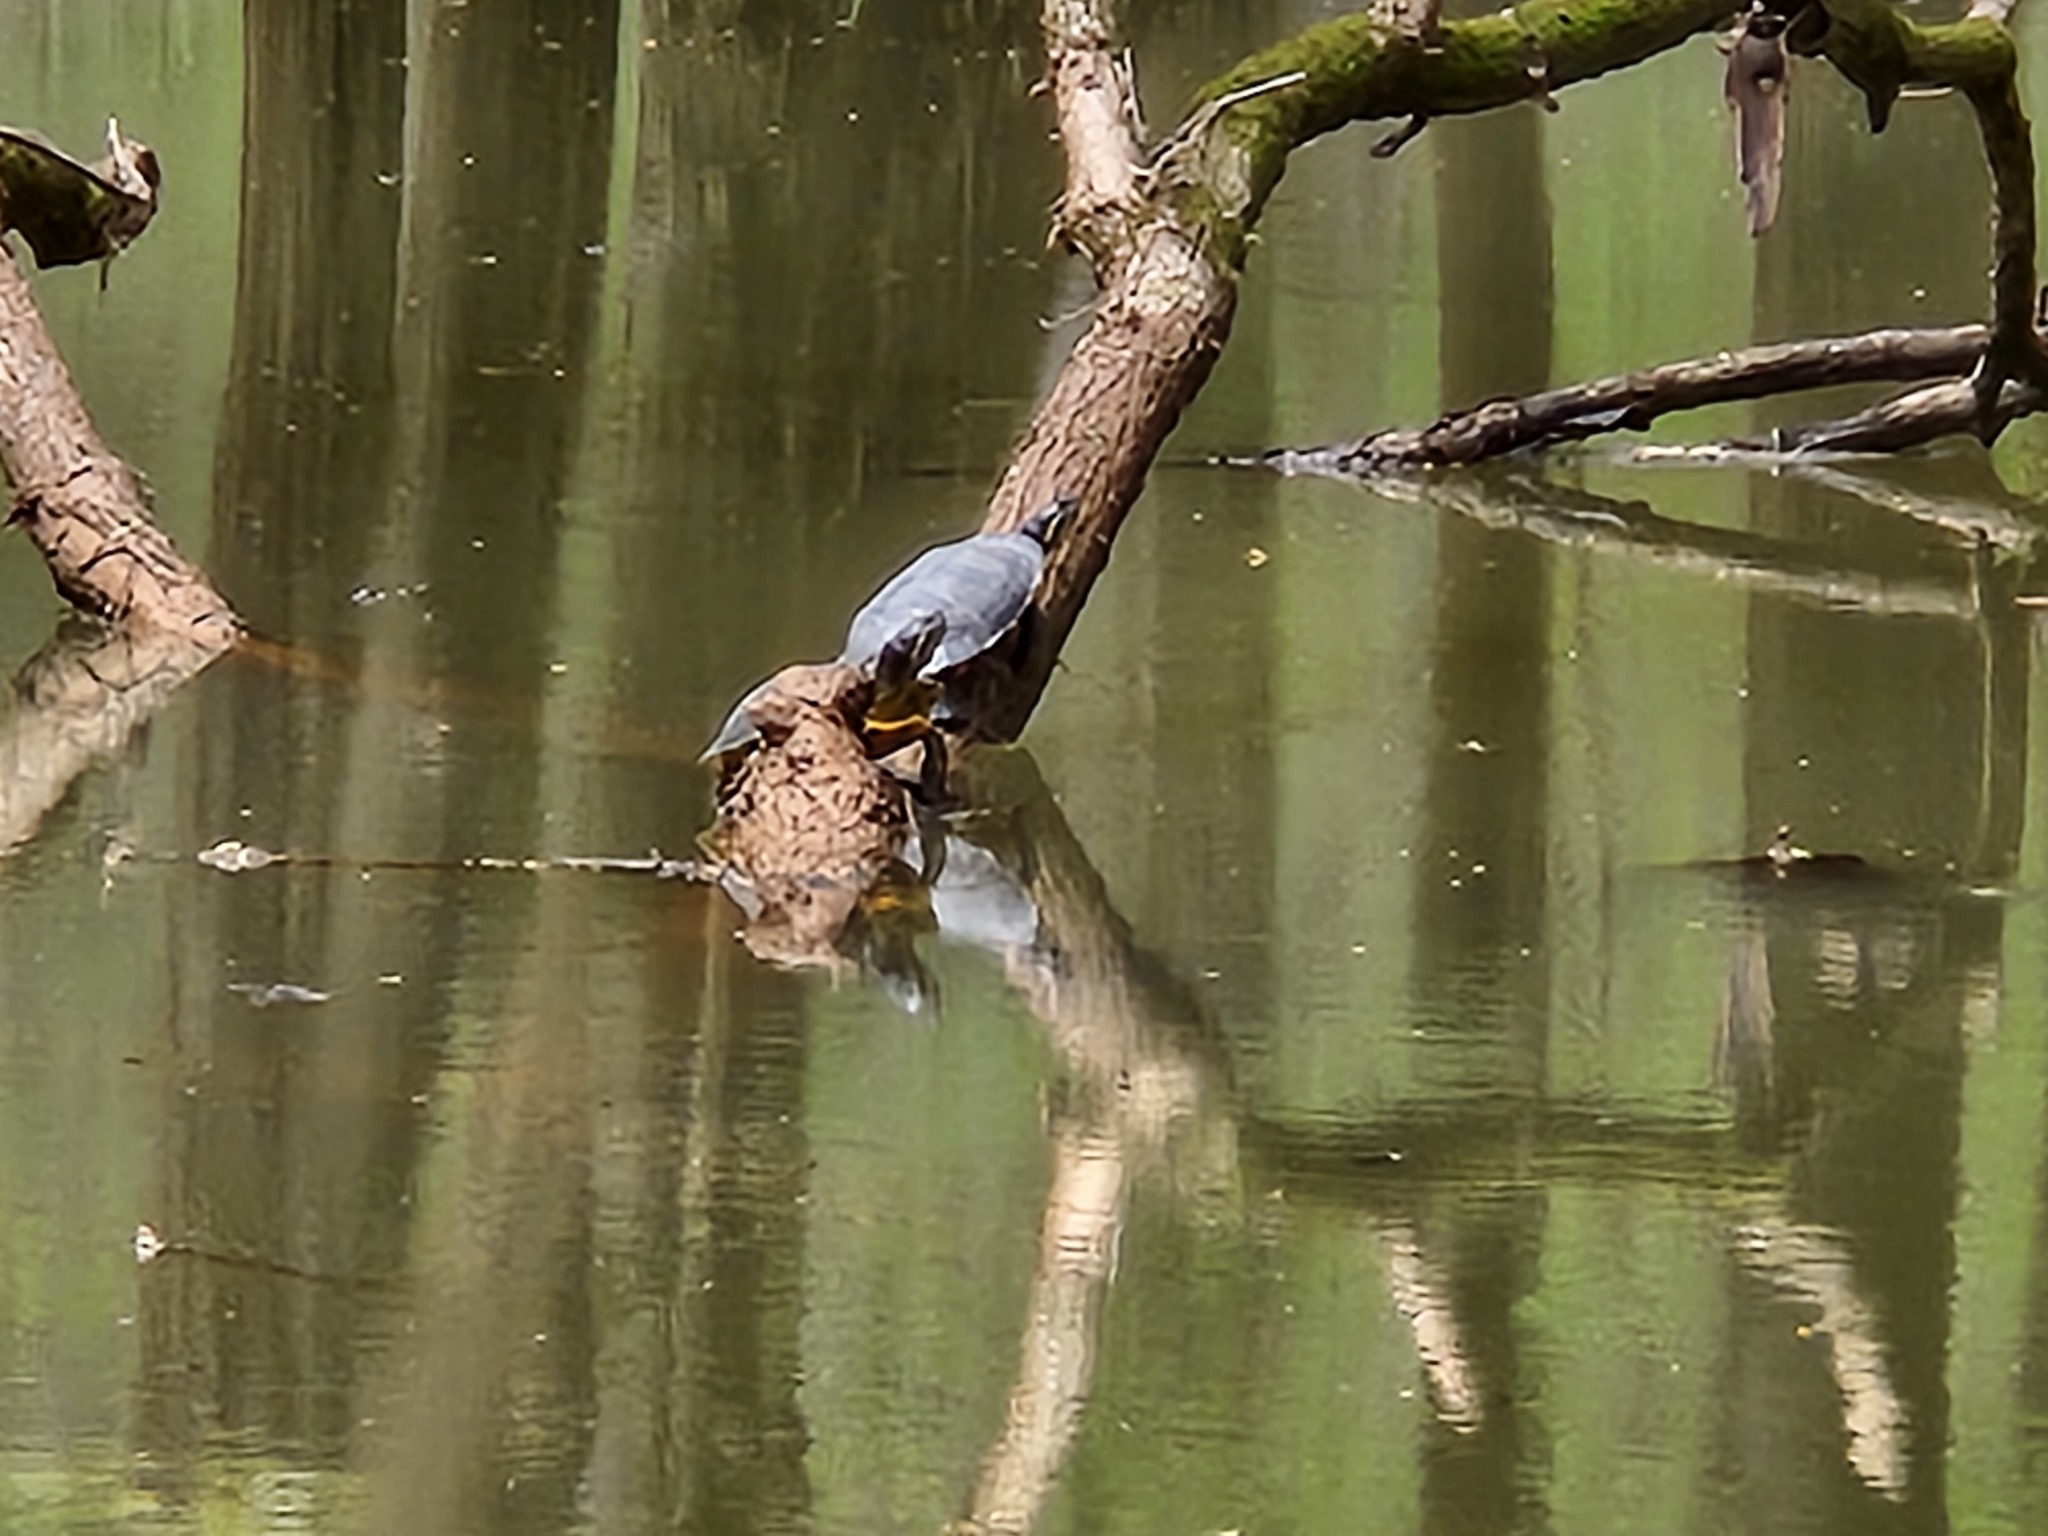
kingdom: Animalia
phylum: Chordata
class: Testudines
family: Emydidae
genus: Trachemys
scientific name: Trachemys scripta
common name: Slider
